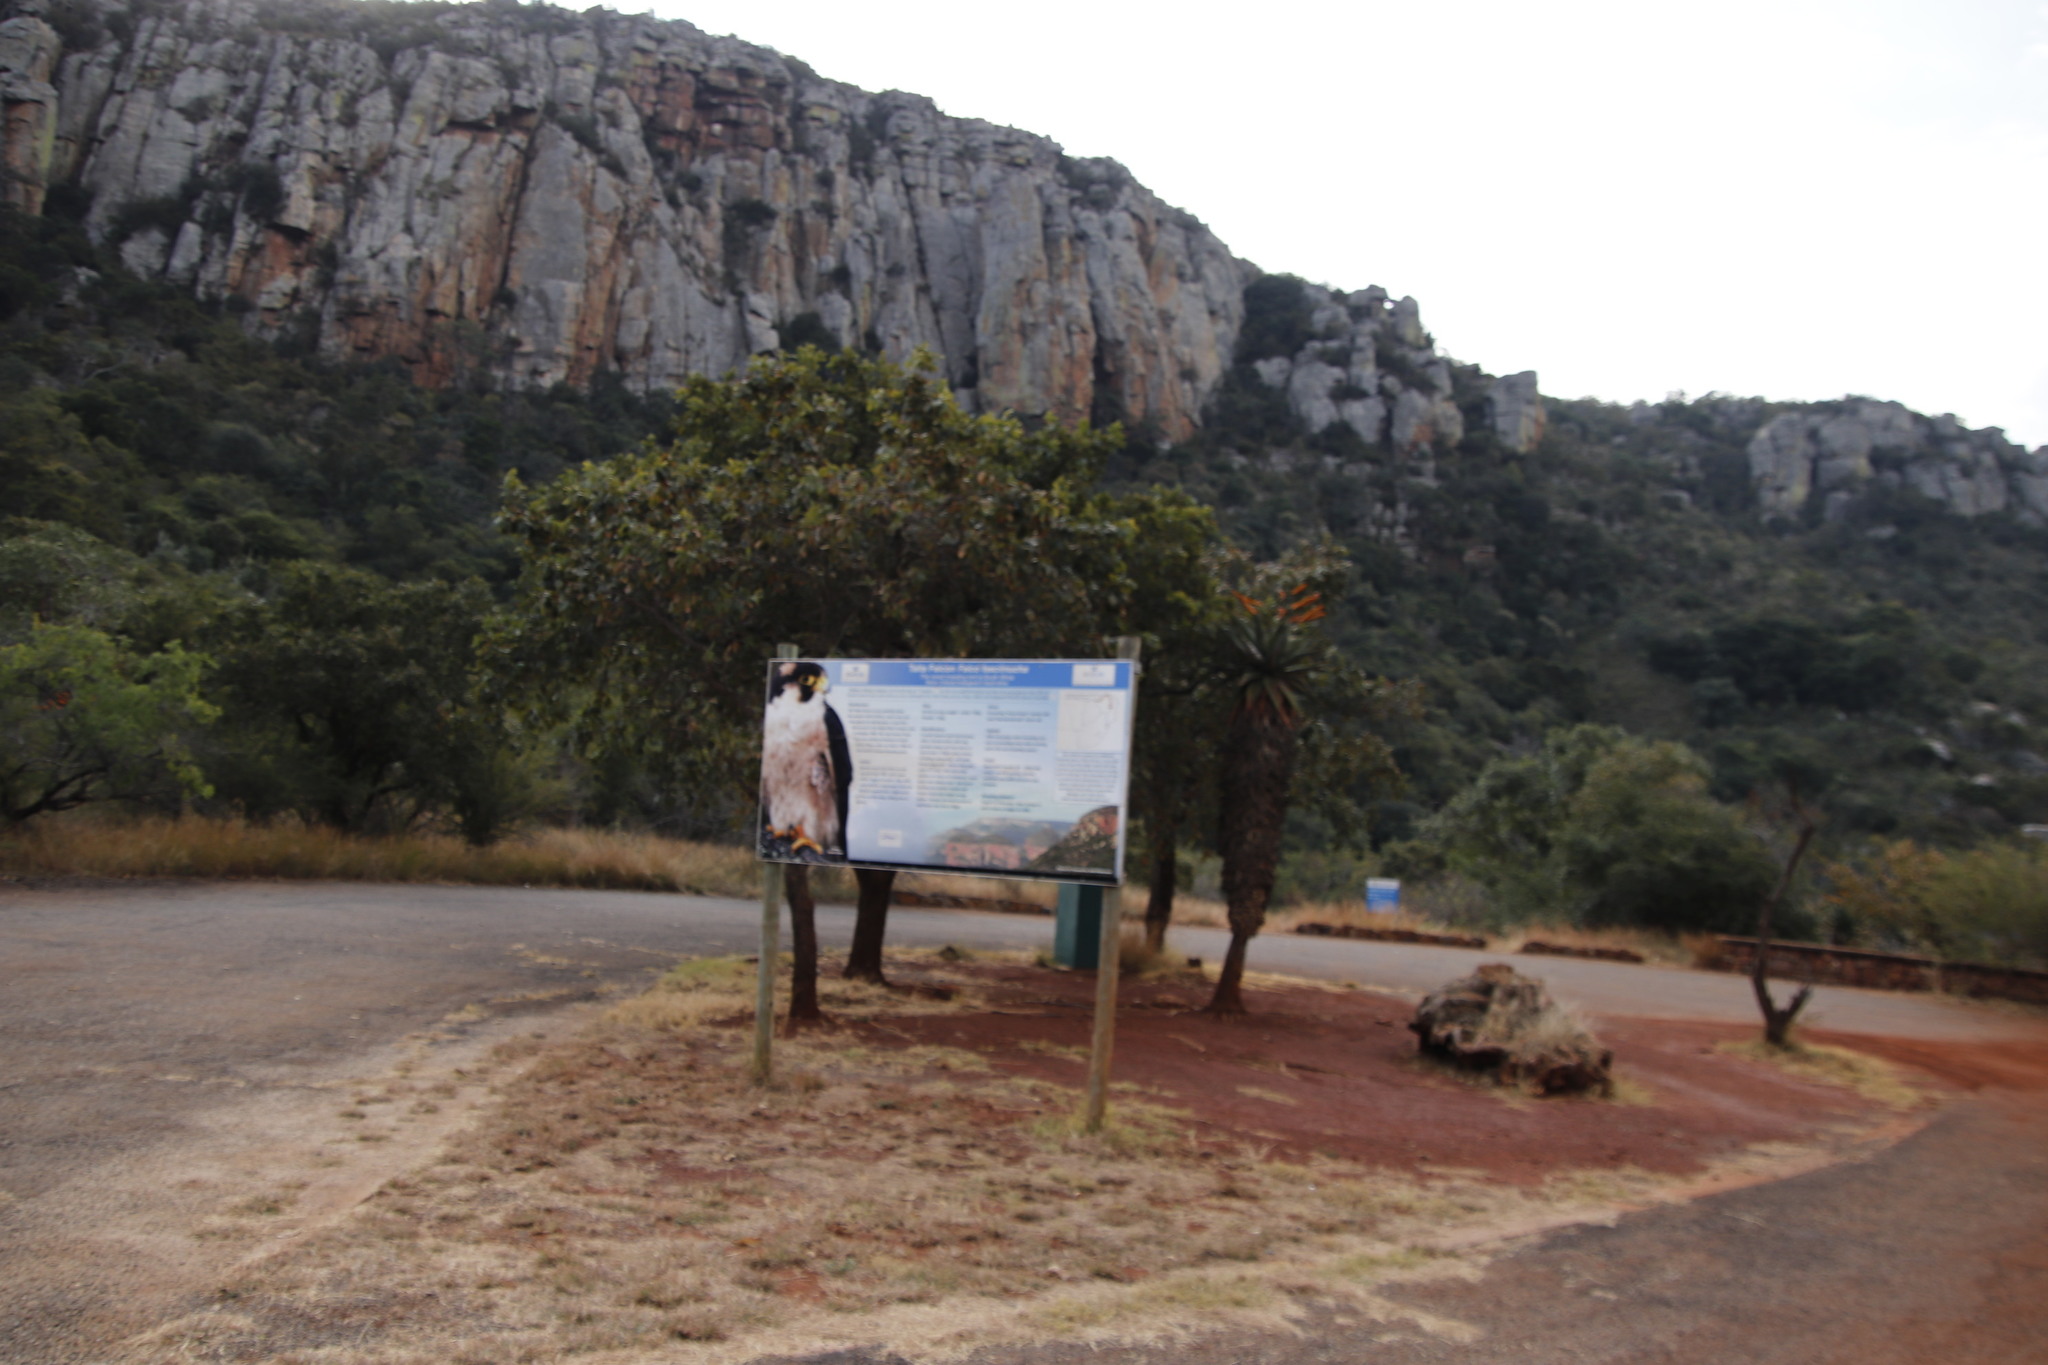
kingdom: Plantae
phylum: Tracheophyta
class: Liliopsida
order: Asparagales
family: Asphodelaceae
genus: Aloe
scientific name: Aloe marlothii
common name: Flat-flowered aloe
